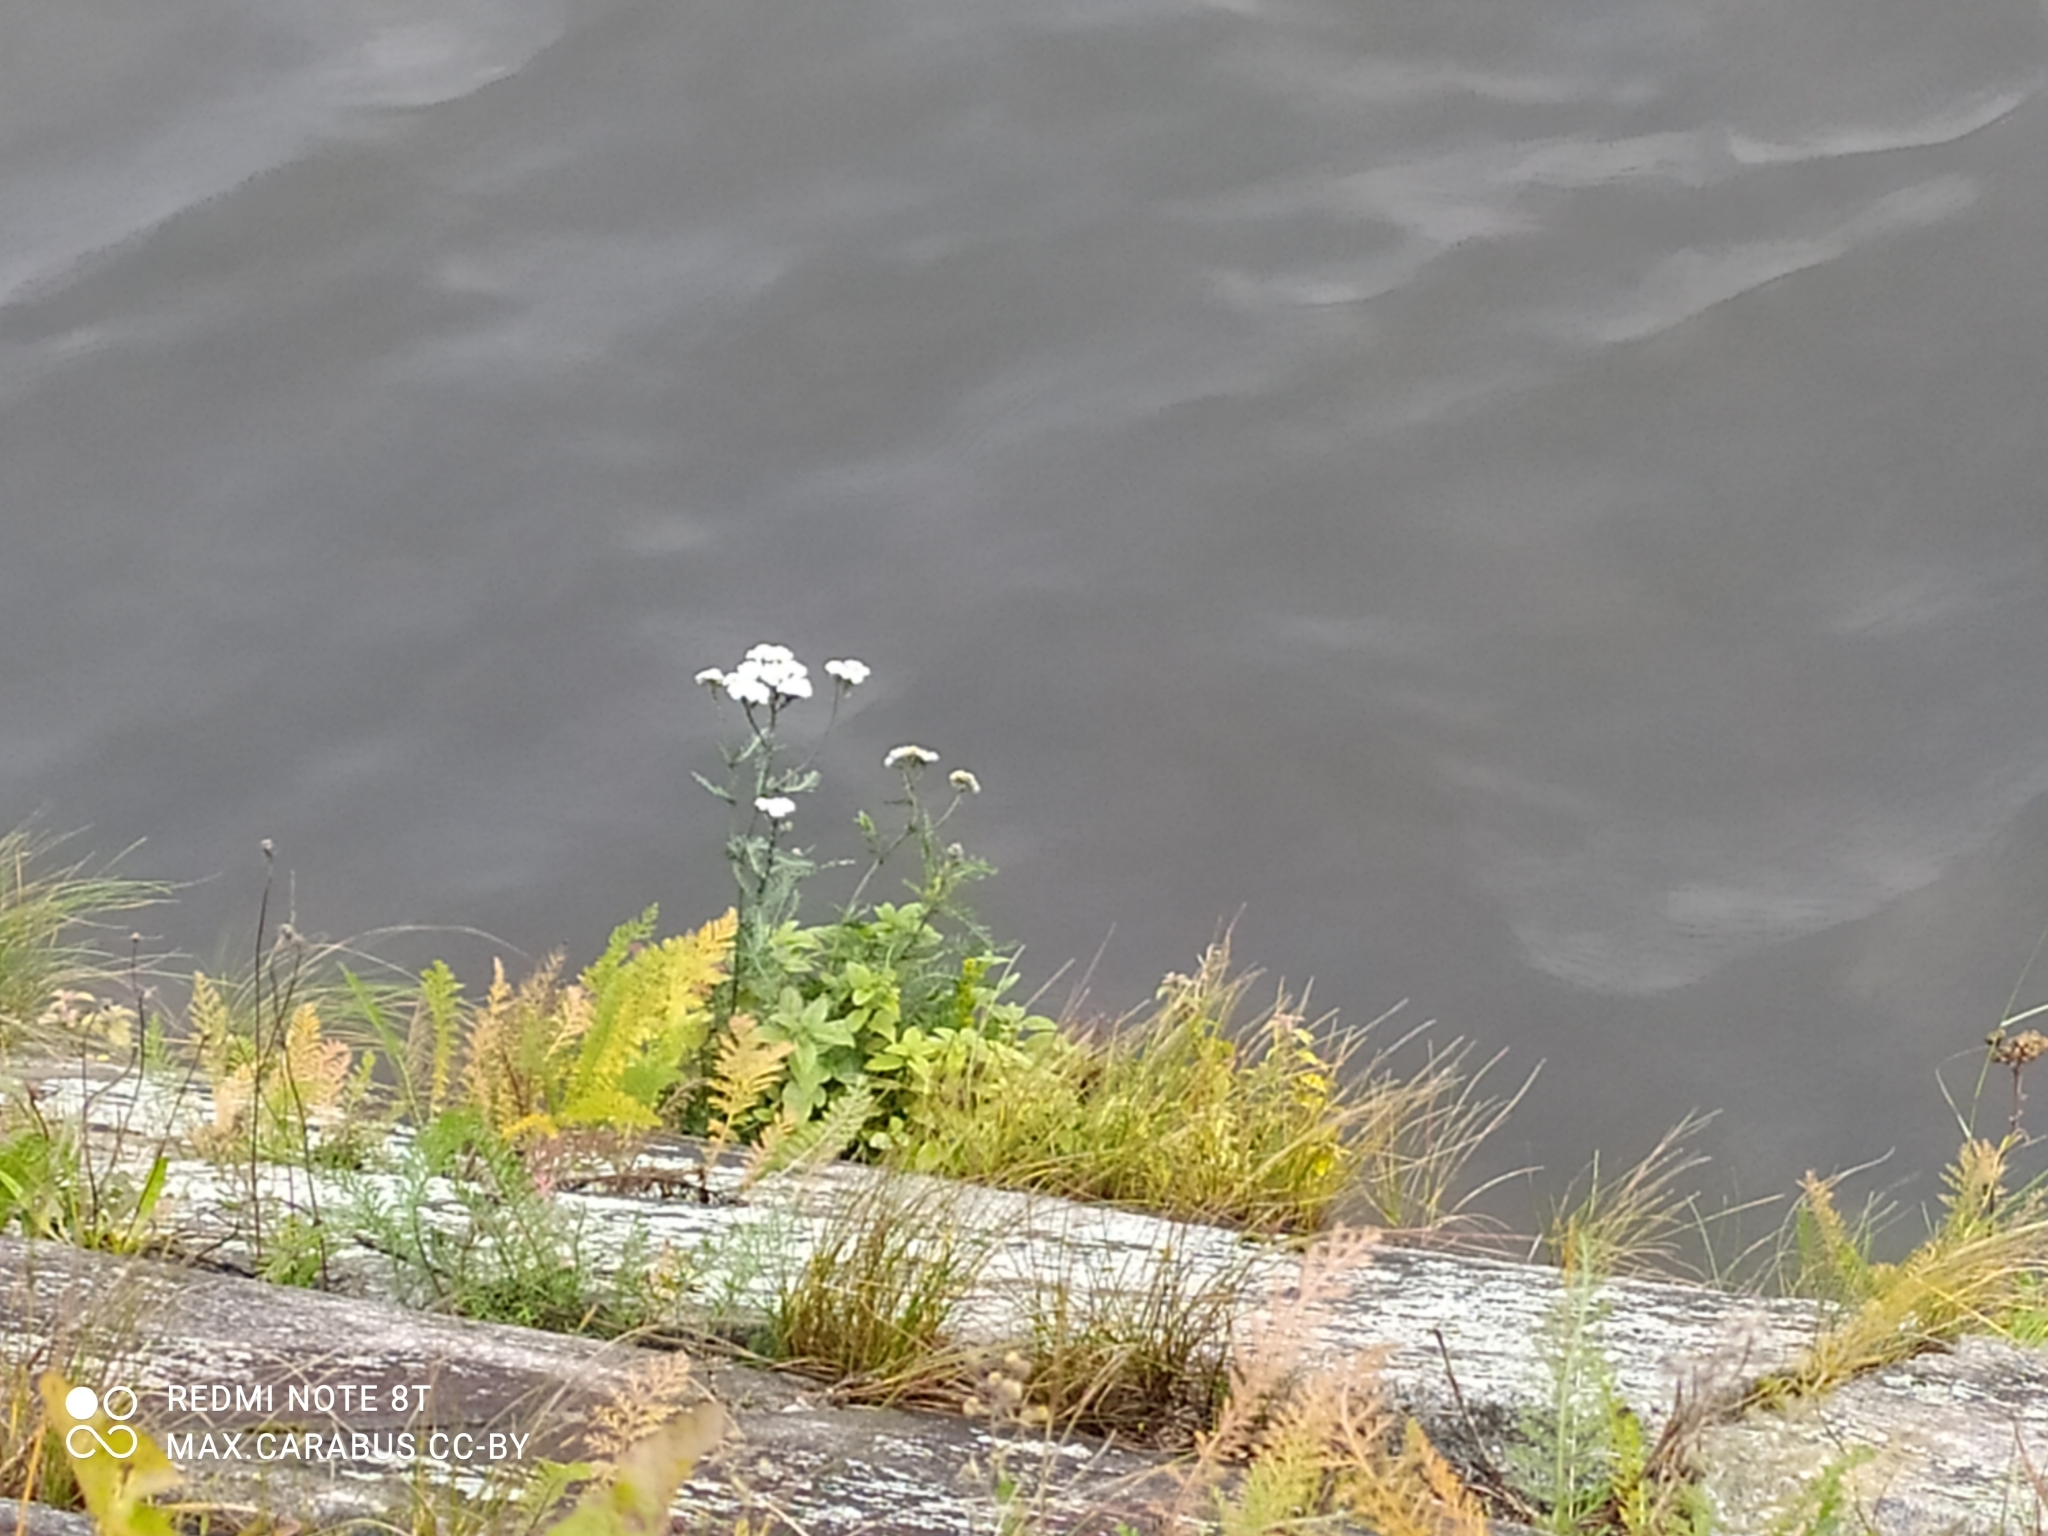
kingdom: Plantae
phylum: Tracheophyta
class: Magnoliopsida
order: Asterales
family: Asteraceae
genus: Achillea
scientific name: Achillea millefolium
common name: Yarrow
